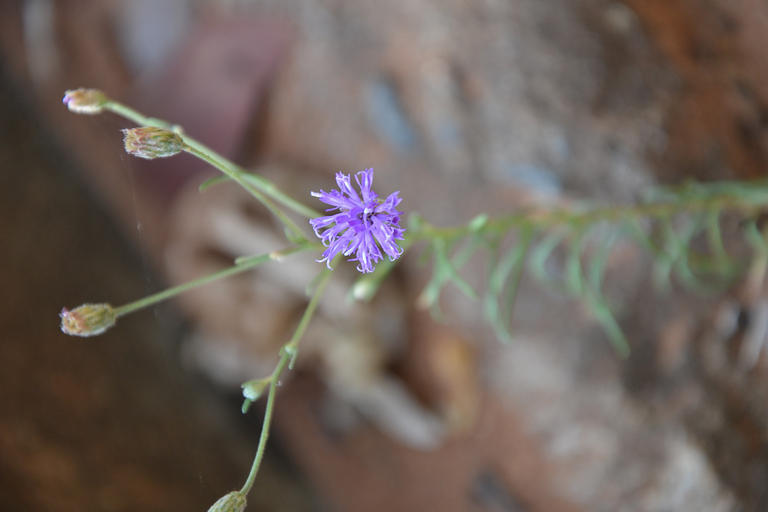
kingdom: Plantae
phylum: Tracheophyta
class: Magnoliopsida
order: Asterales
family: Asteraceae
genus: Crystallopollen
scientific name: Crystallopollen angustifolium
